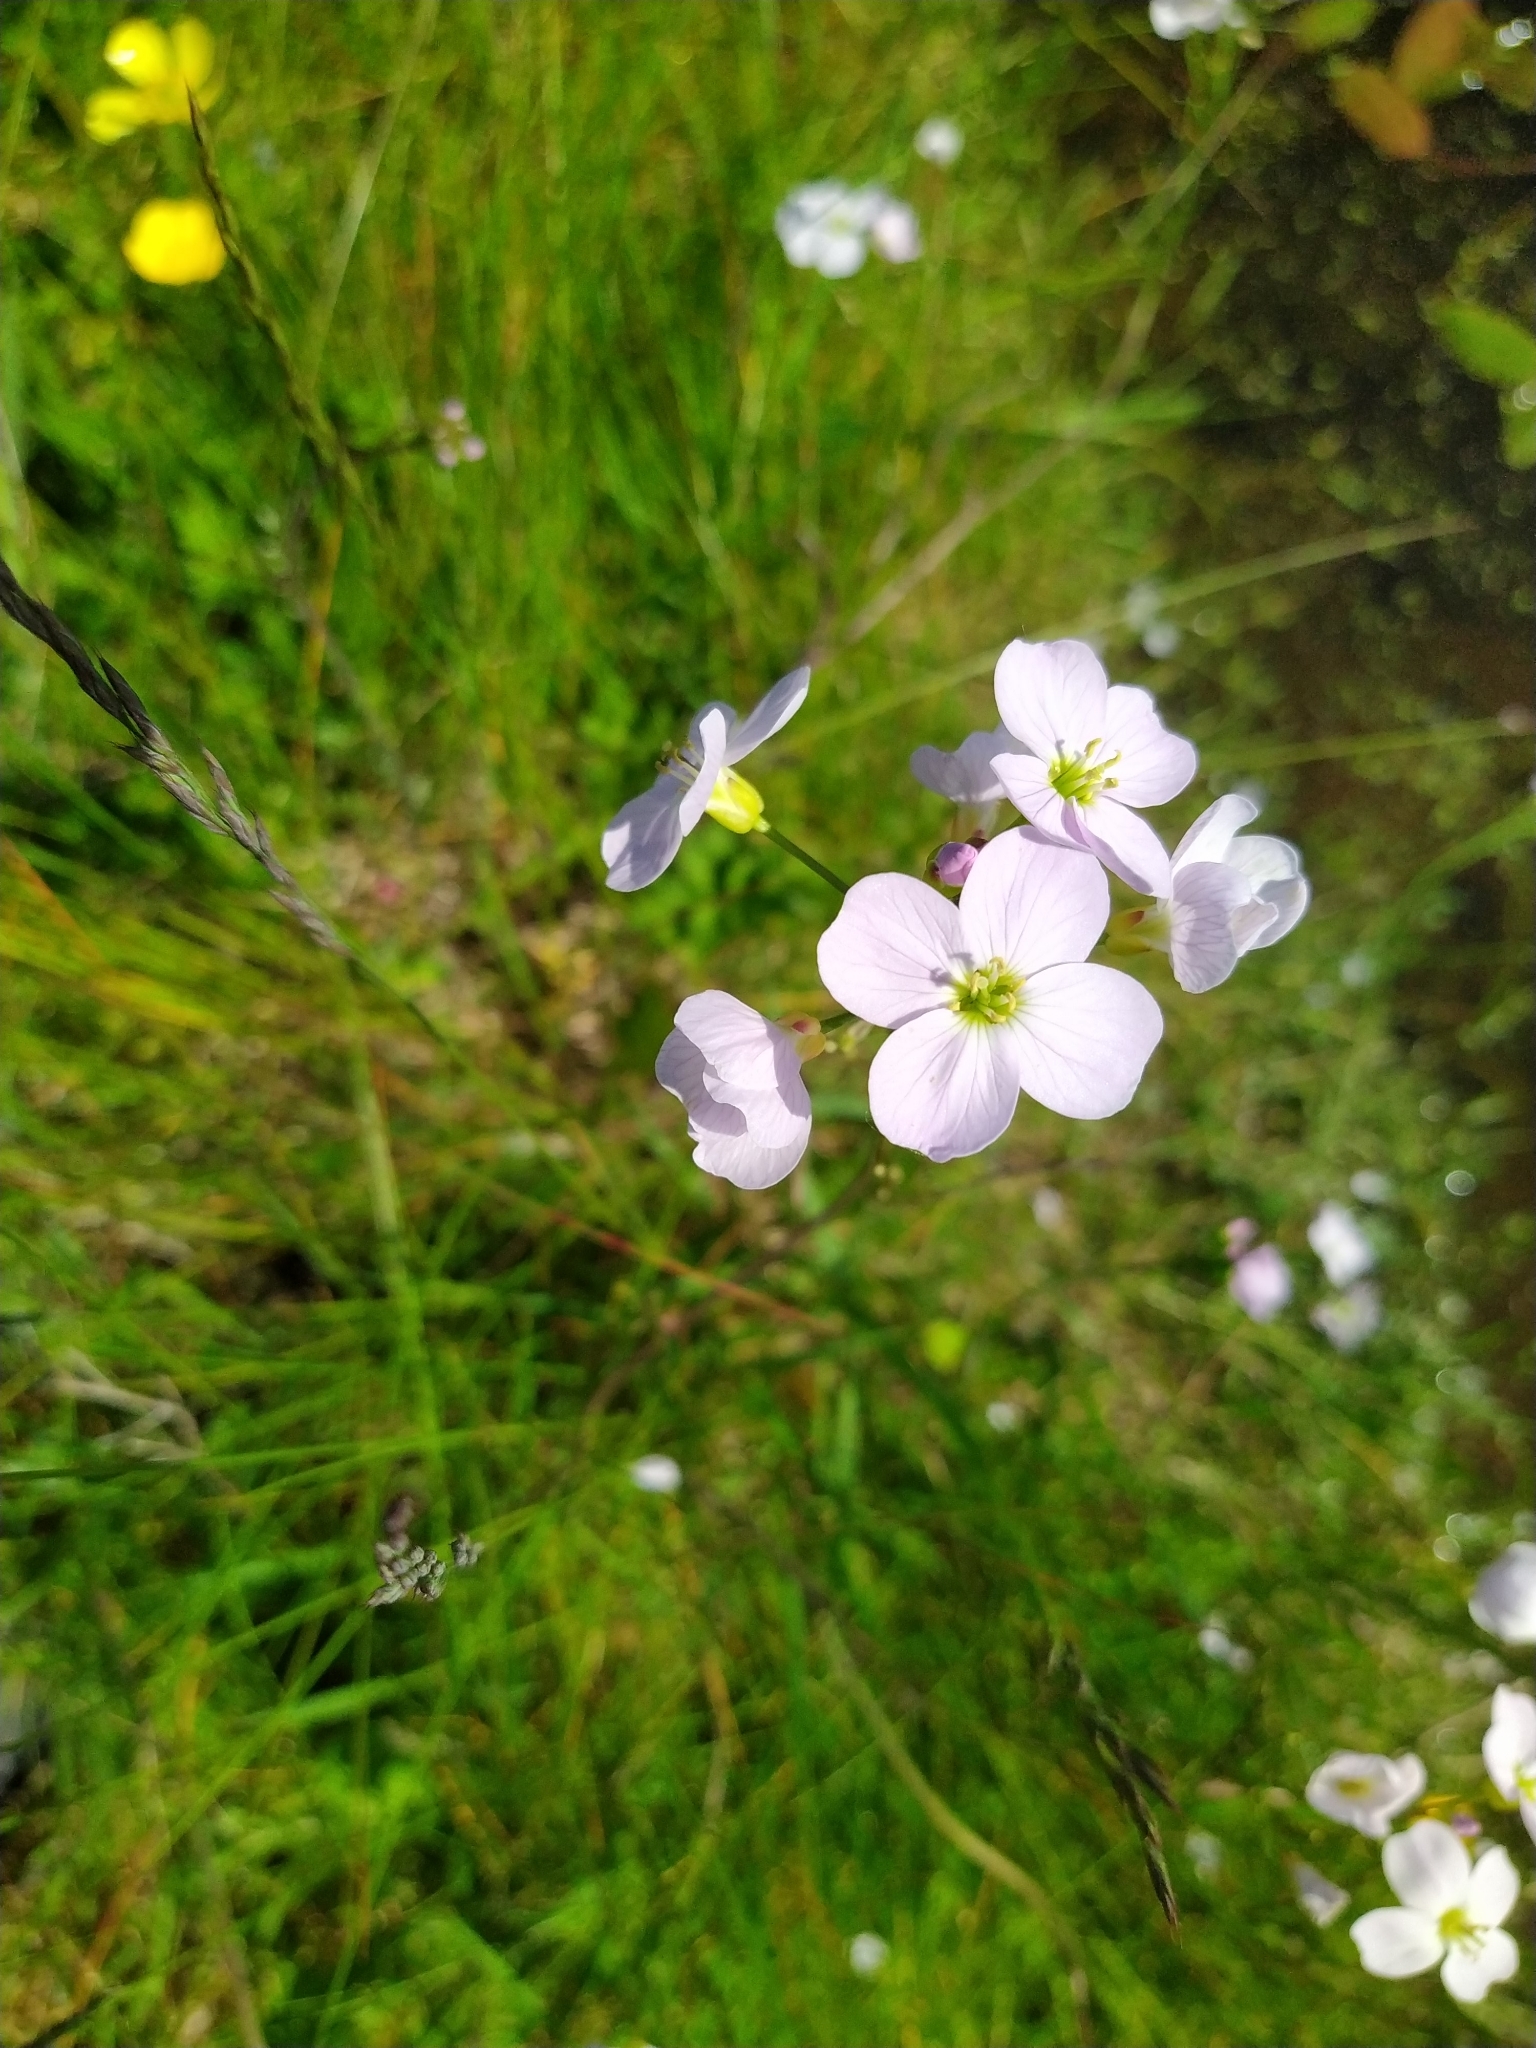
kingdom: Plantae
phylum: Tracheophyta
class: Magnoliopsida
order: Brassicales
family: Brassicaceae
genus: Cardamine
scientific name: Cardamine pratensis
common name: Cuckoo flower
